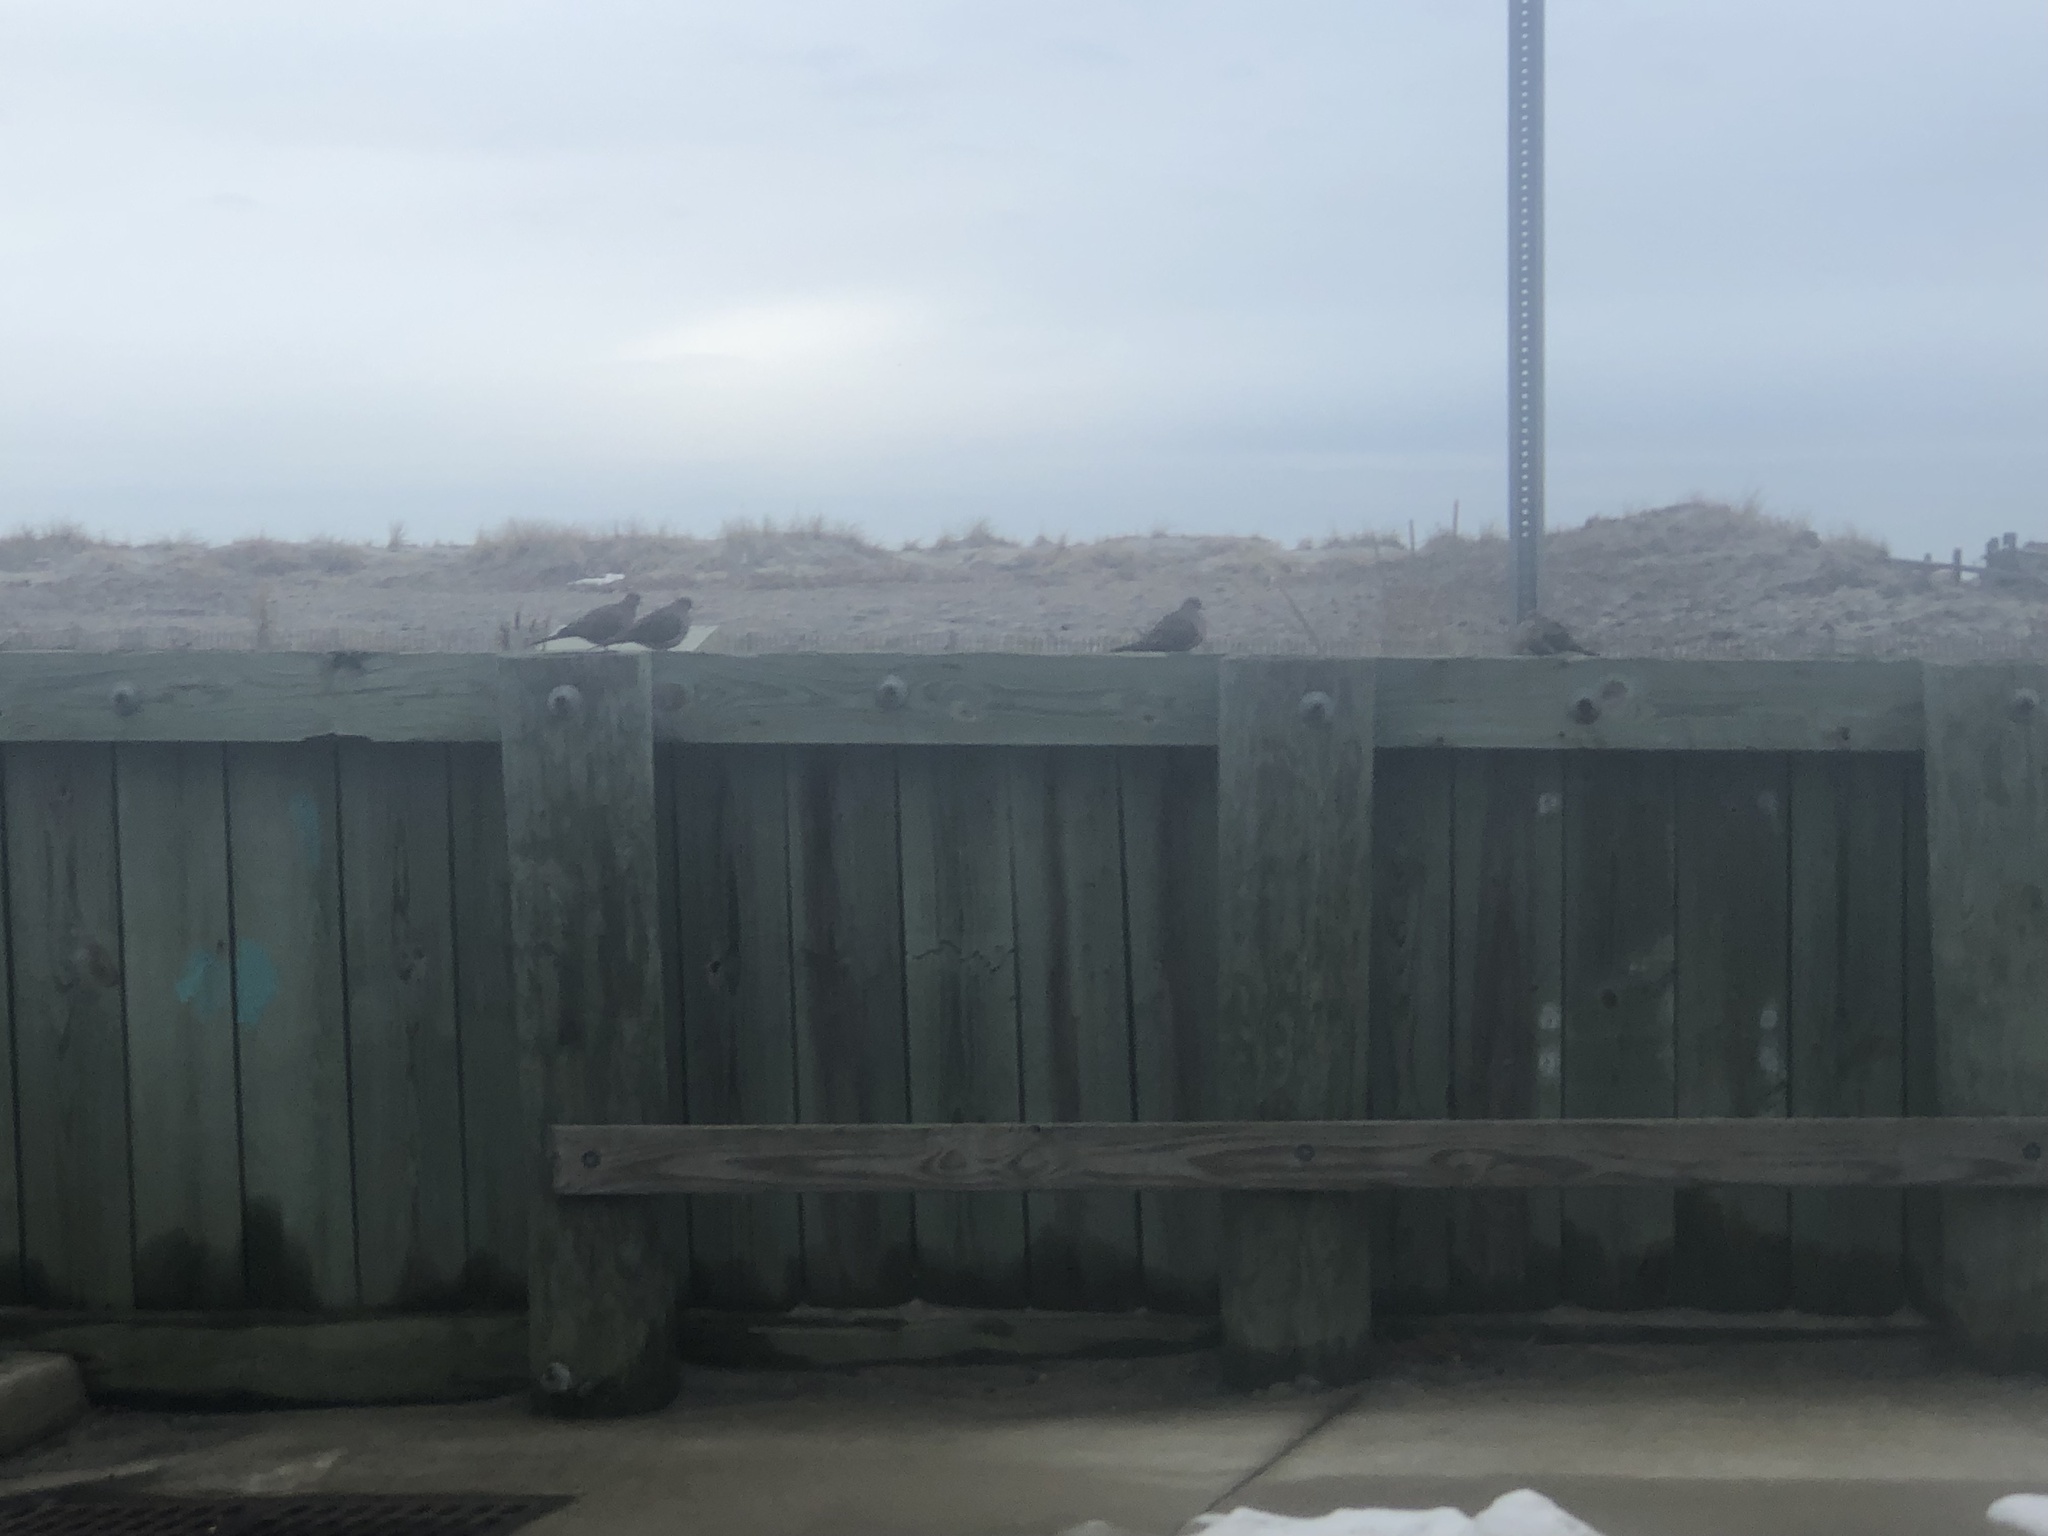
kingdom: Animalia
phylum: Chordata
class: Aves
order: Columbiformes
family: Columbidae
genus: Zenaida
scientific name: Zenaida macroura
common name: Mourning dove
